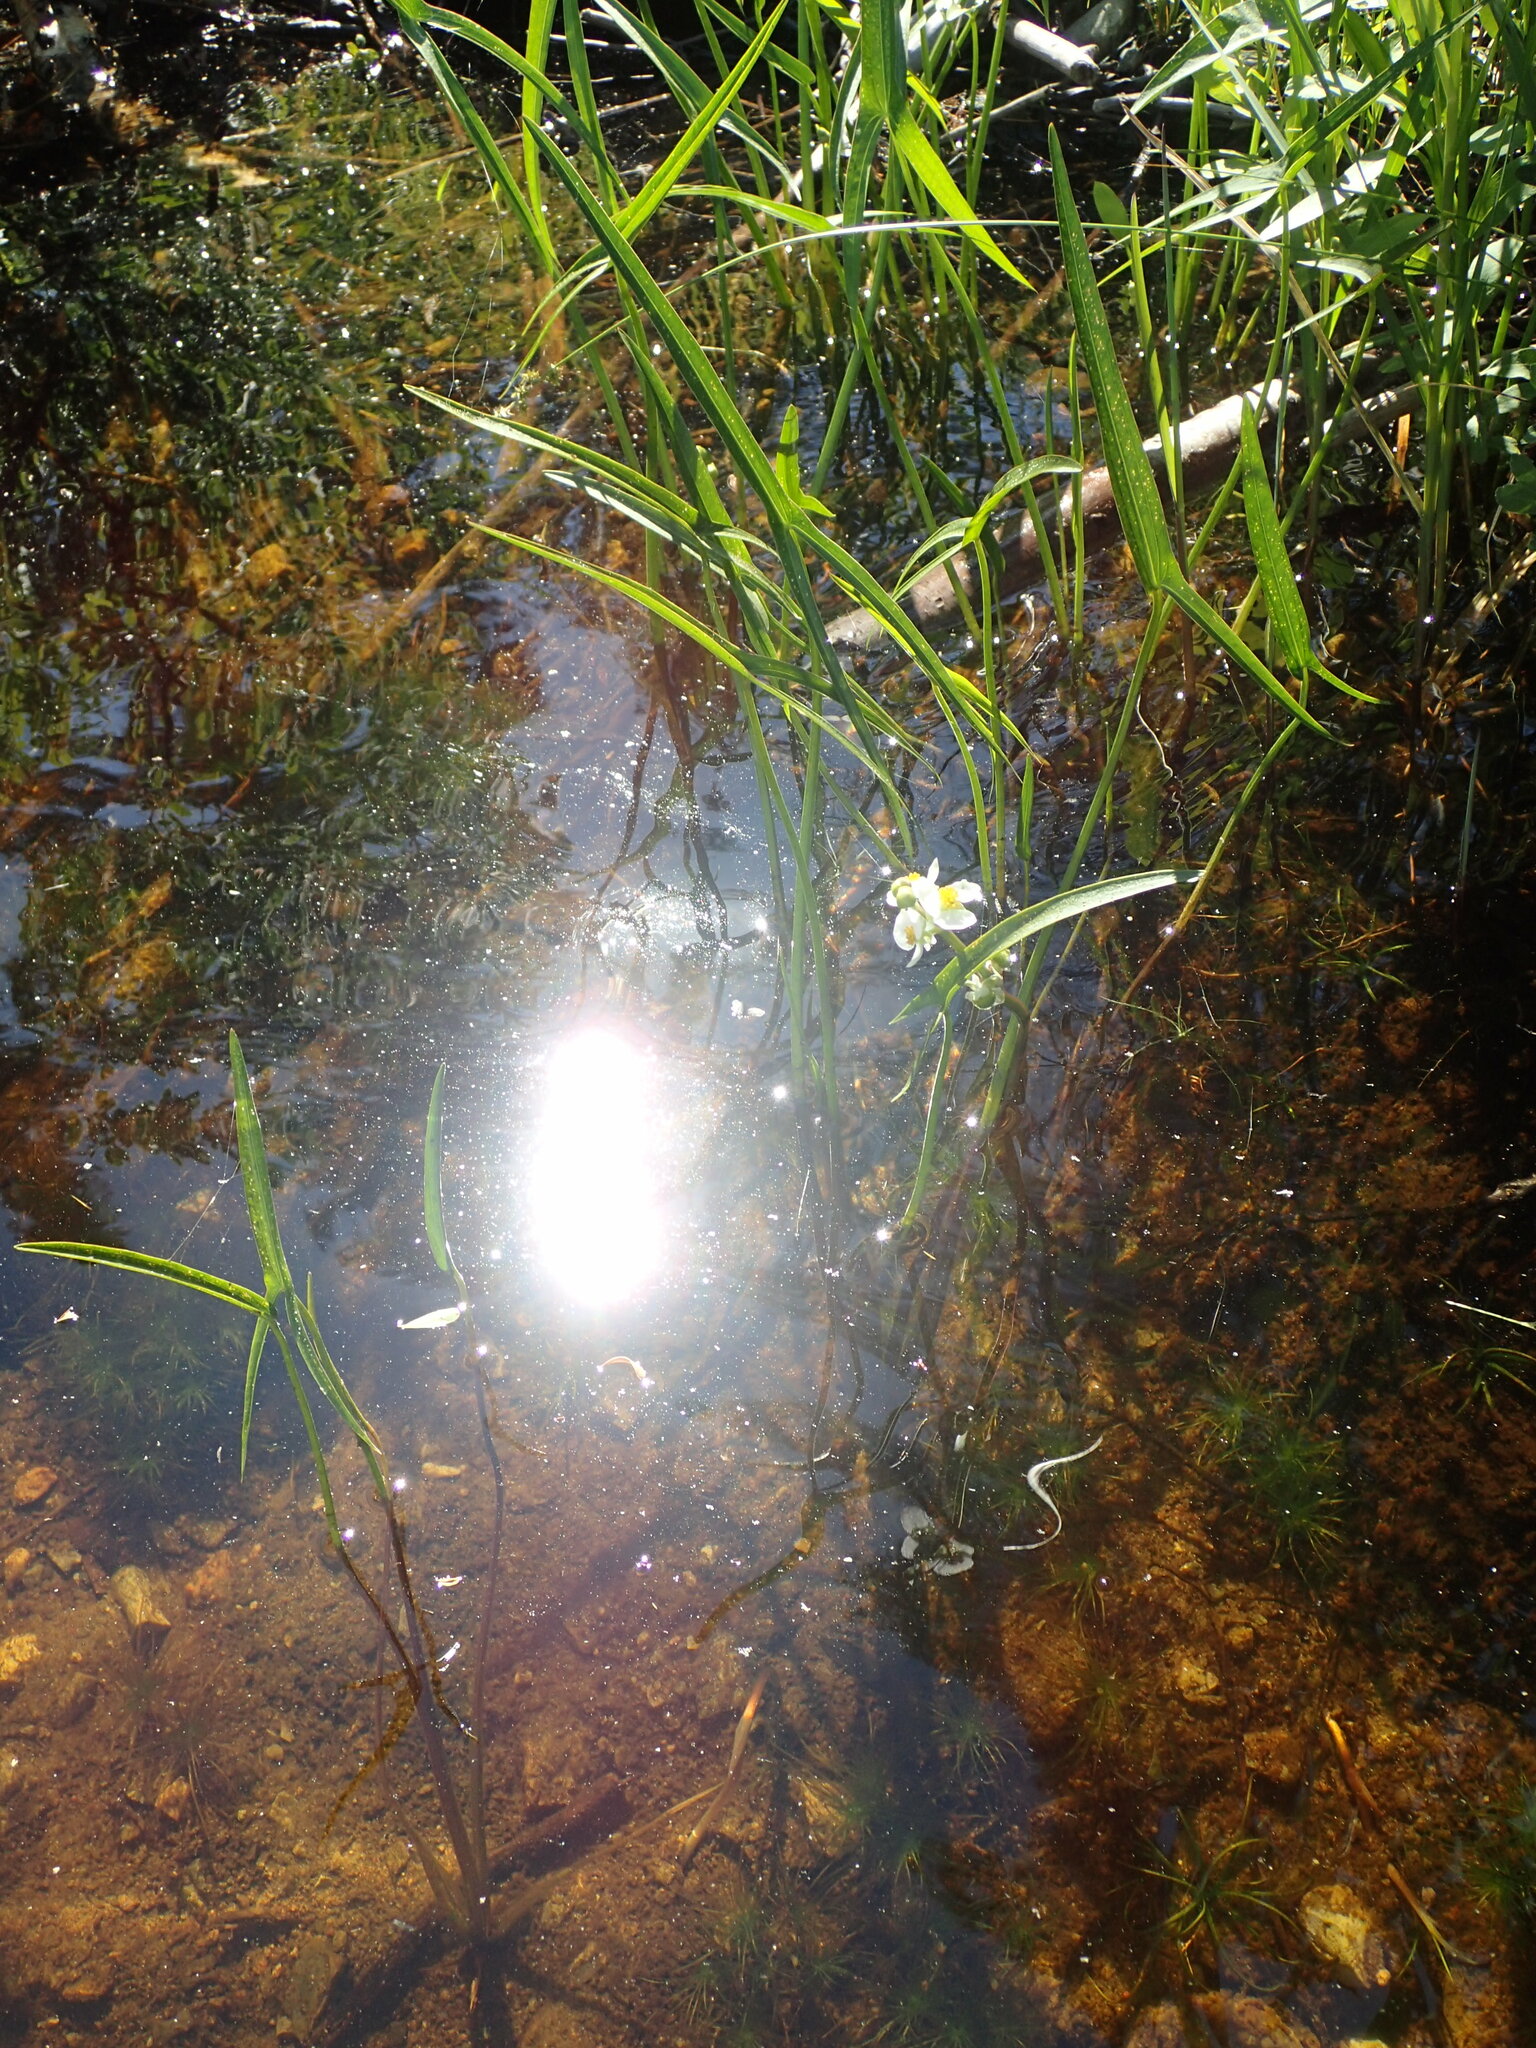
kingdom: Plantae
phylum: Tracheophyta
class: Liliopsida
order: Alismatales
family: Alismataceae
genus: Sagittaria
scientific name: Sagittaria latifolia
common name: Duck-potato
